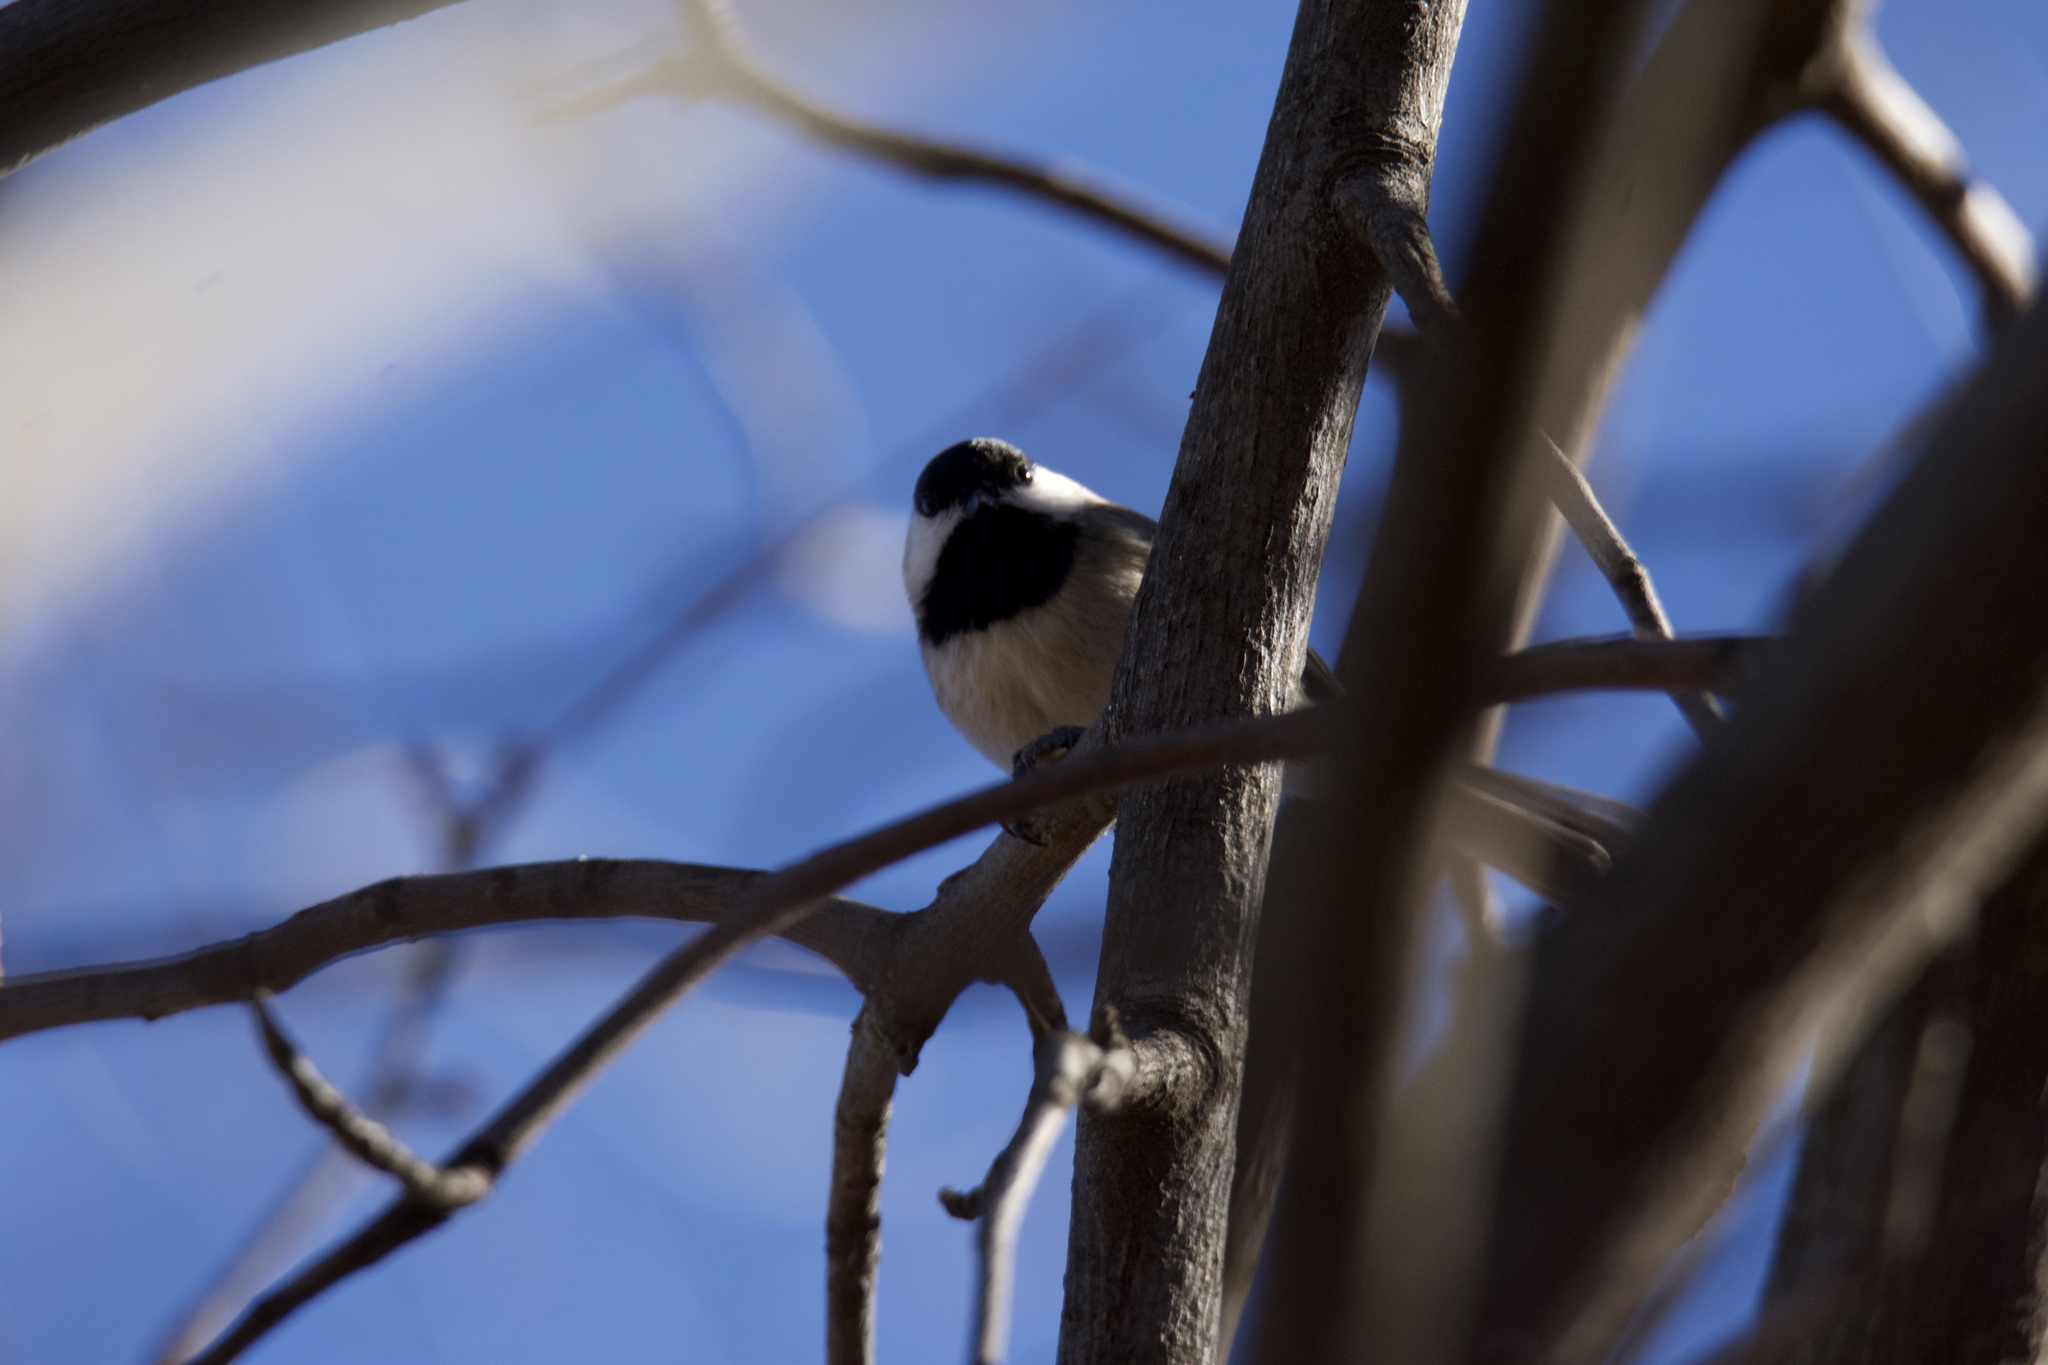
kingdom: Animalia
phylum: Chordata
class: Aves
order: Passeriformes
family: Paridae
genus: Poecile
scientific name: Poecile carolinensis
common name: Carolina chickadee
